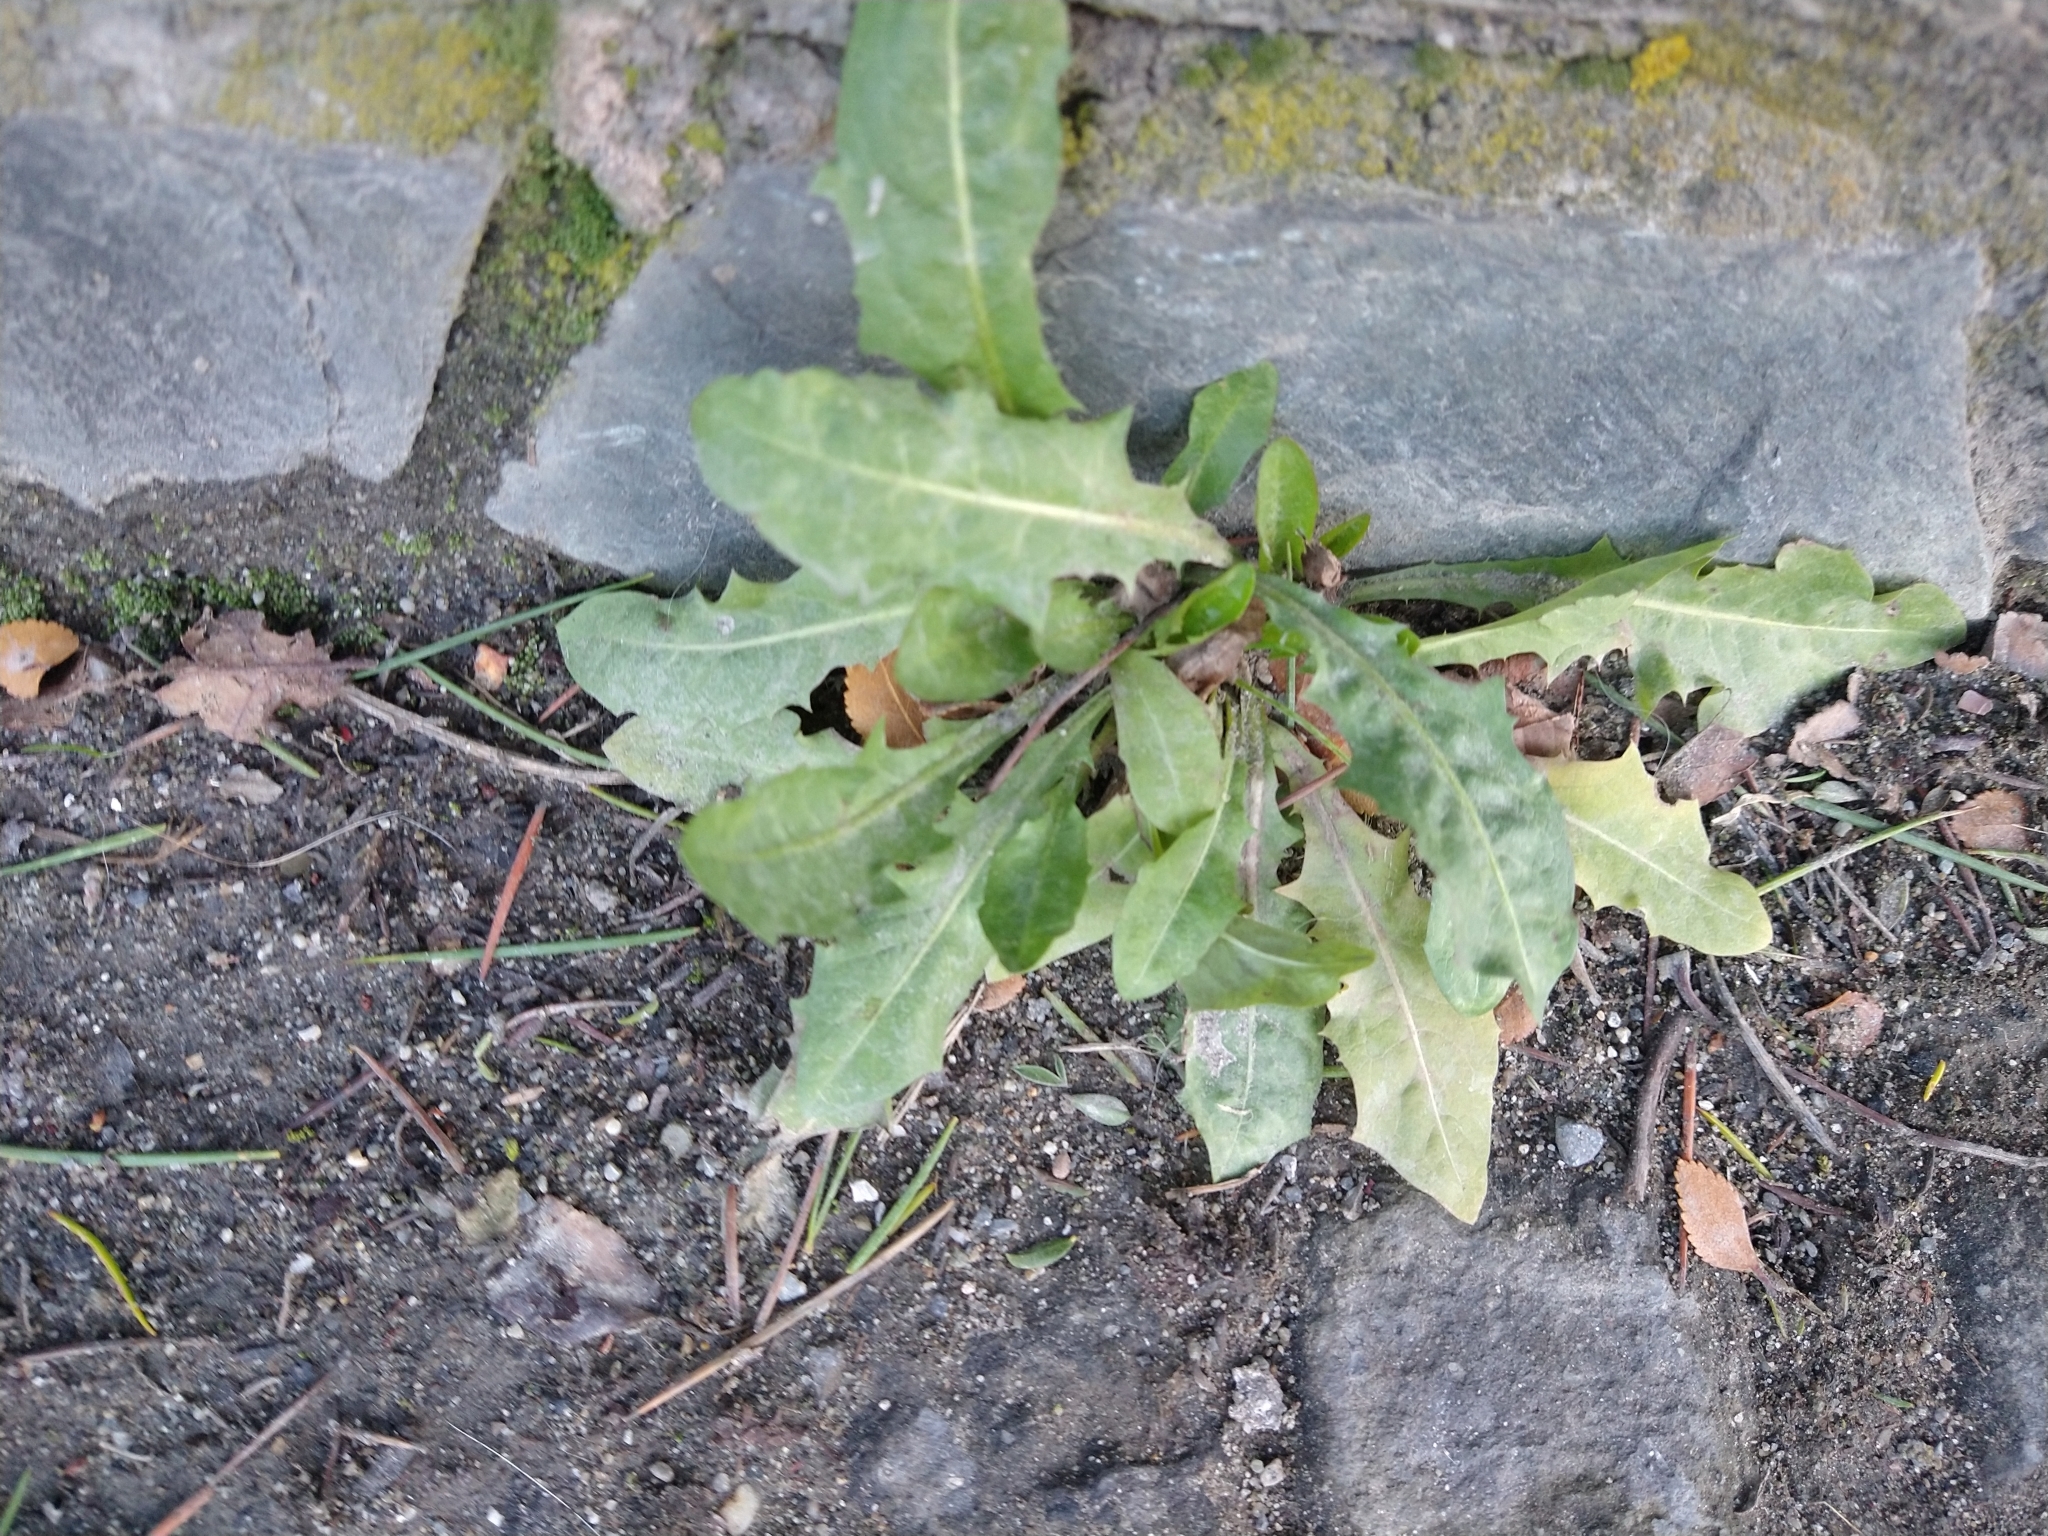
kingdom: Plantae
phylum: Tracheophyta
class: Magnoliopsida
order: Asterales
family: Asteraceae
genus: Taraxacum
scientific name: Taraxacum officinale
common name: Common dandelion
